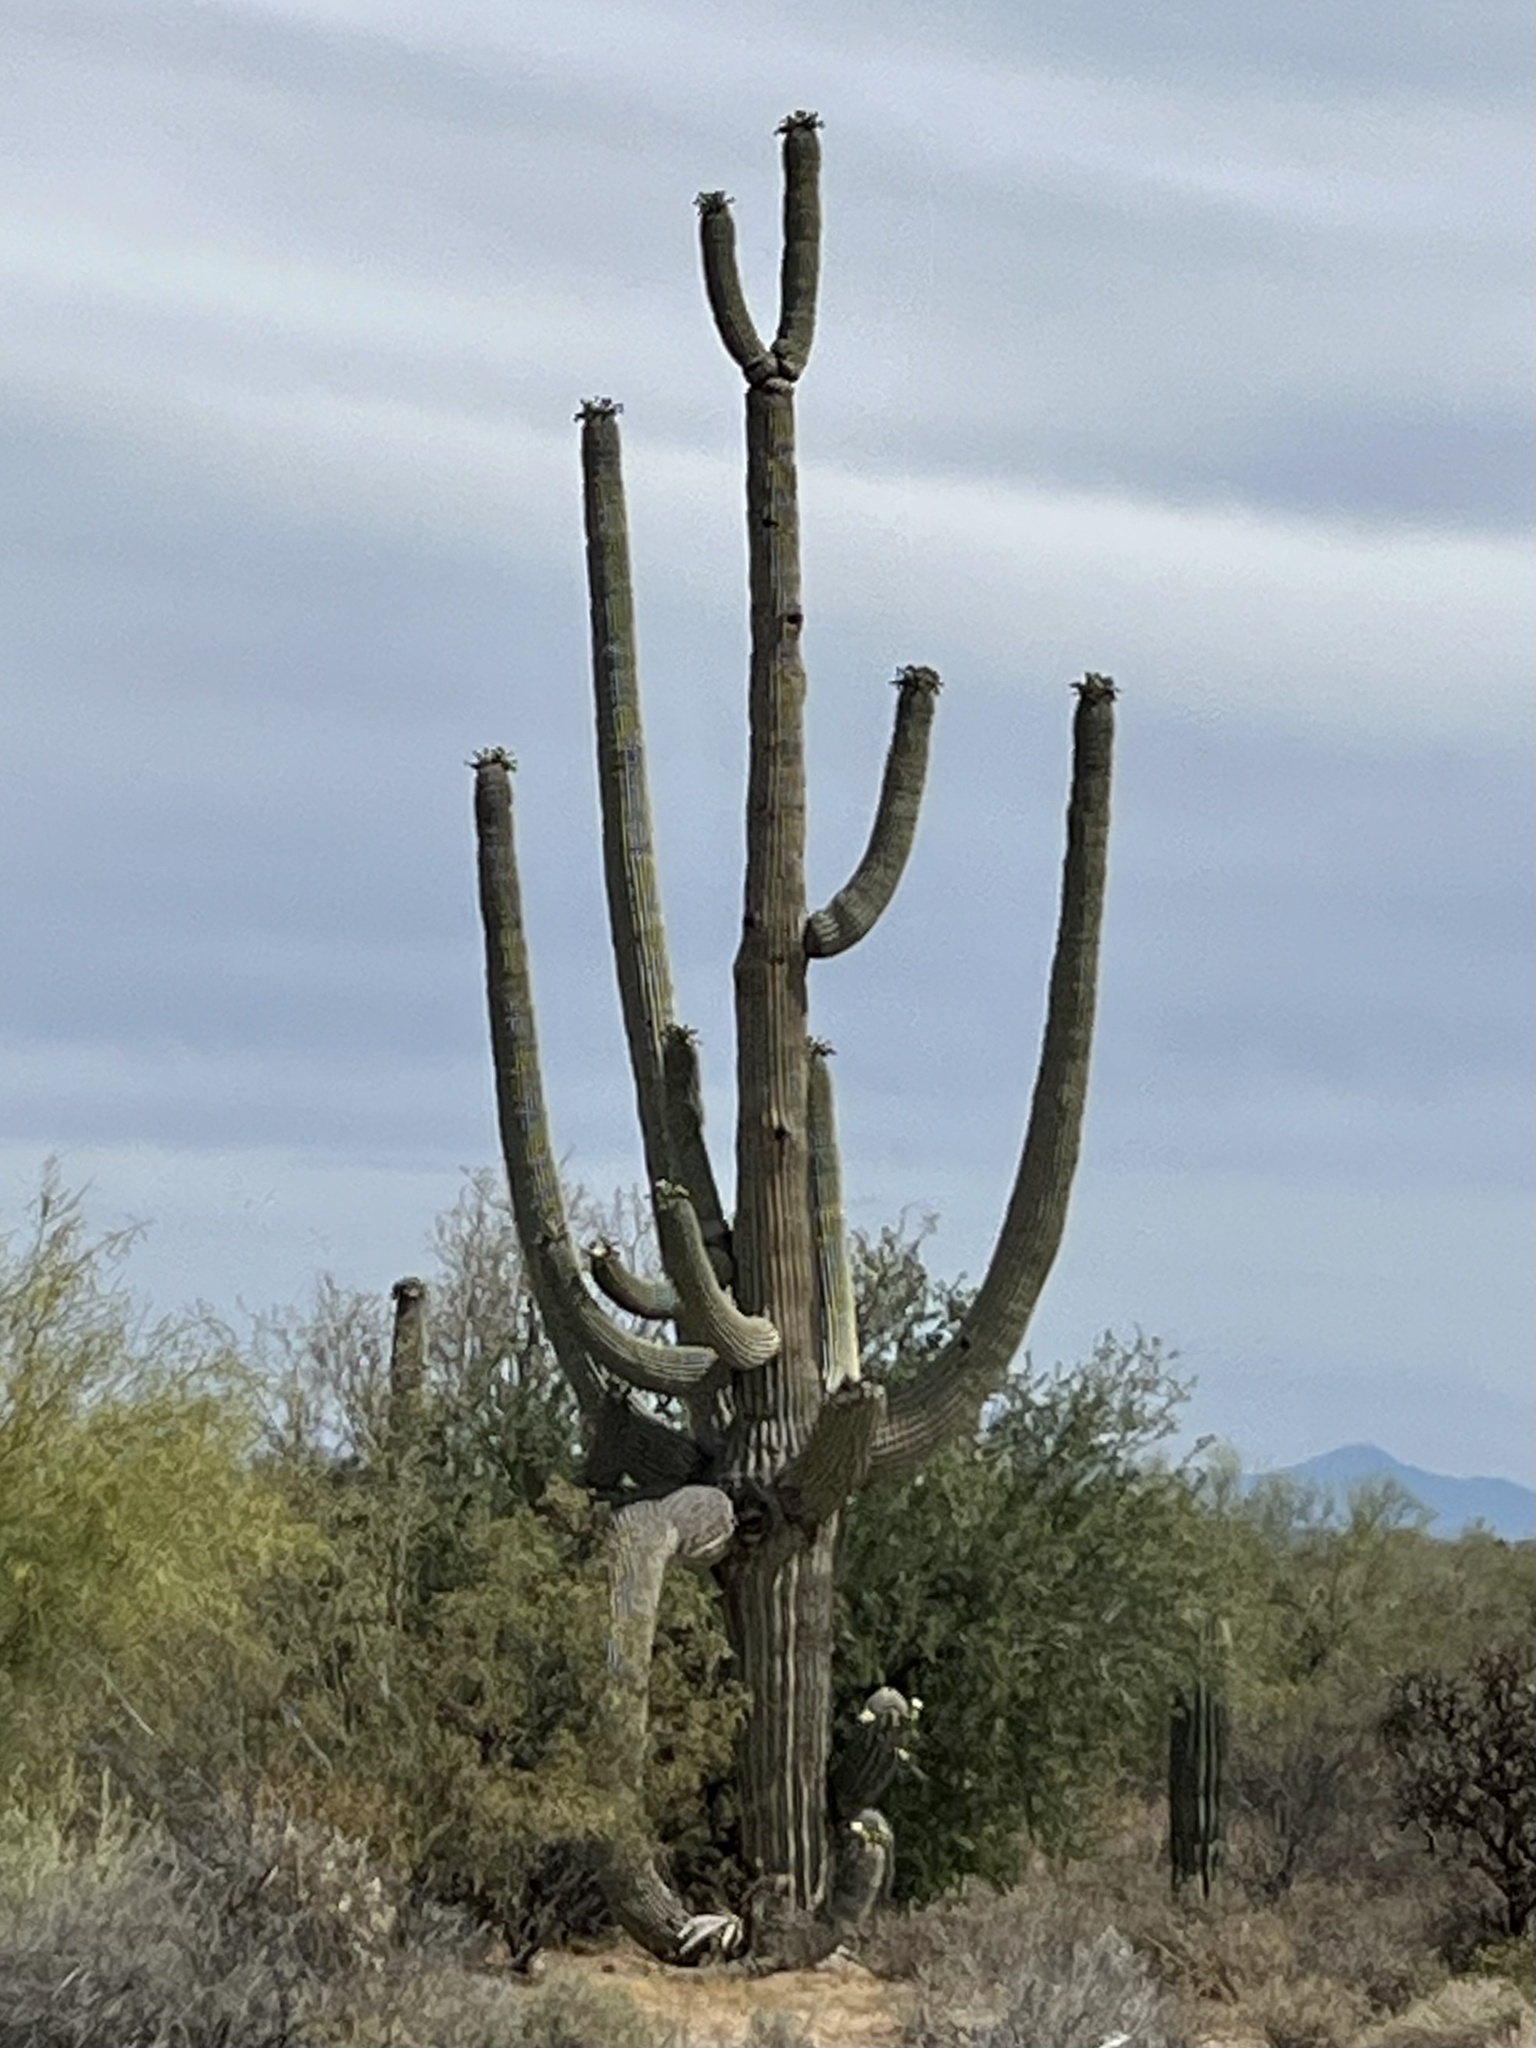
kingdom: Plantae
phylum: Tracheophyta
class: Magnoliopsida
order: Caryophyllales
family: Cactaceae
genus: Carnegiea
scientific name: Carnegiea gigantea
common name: Saguaro
